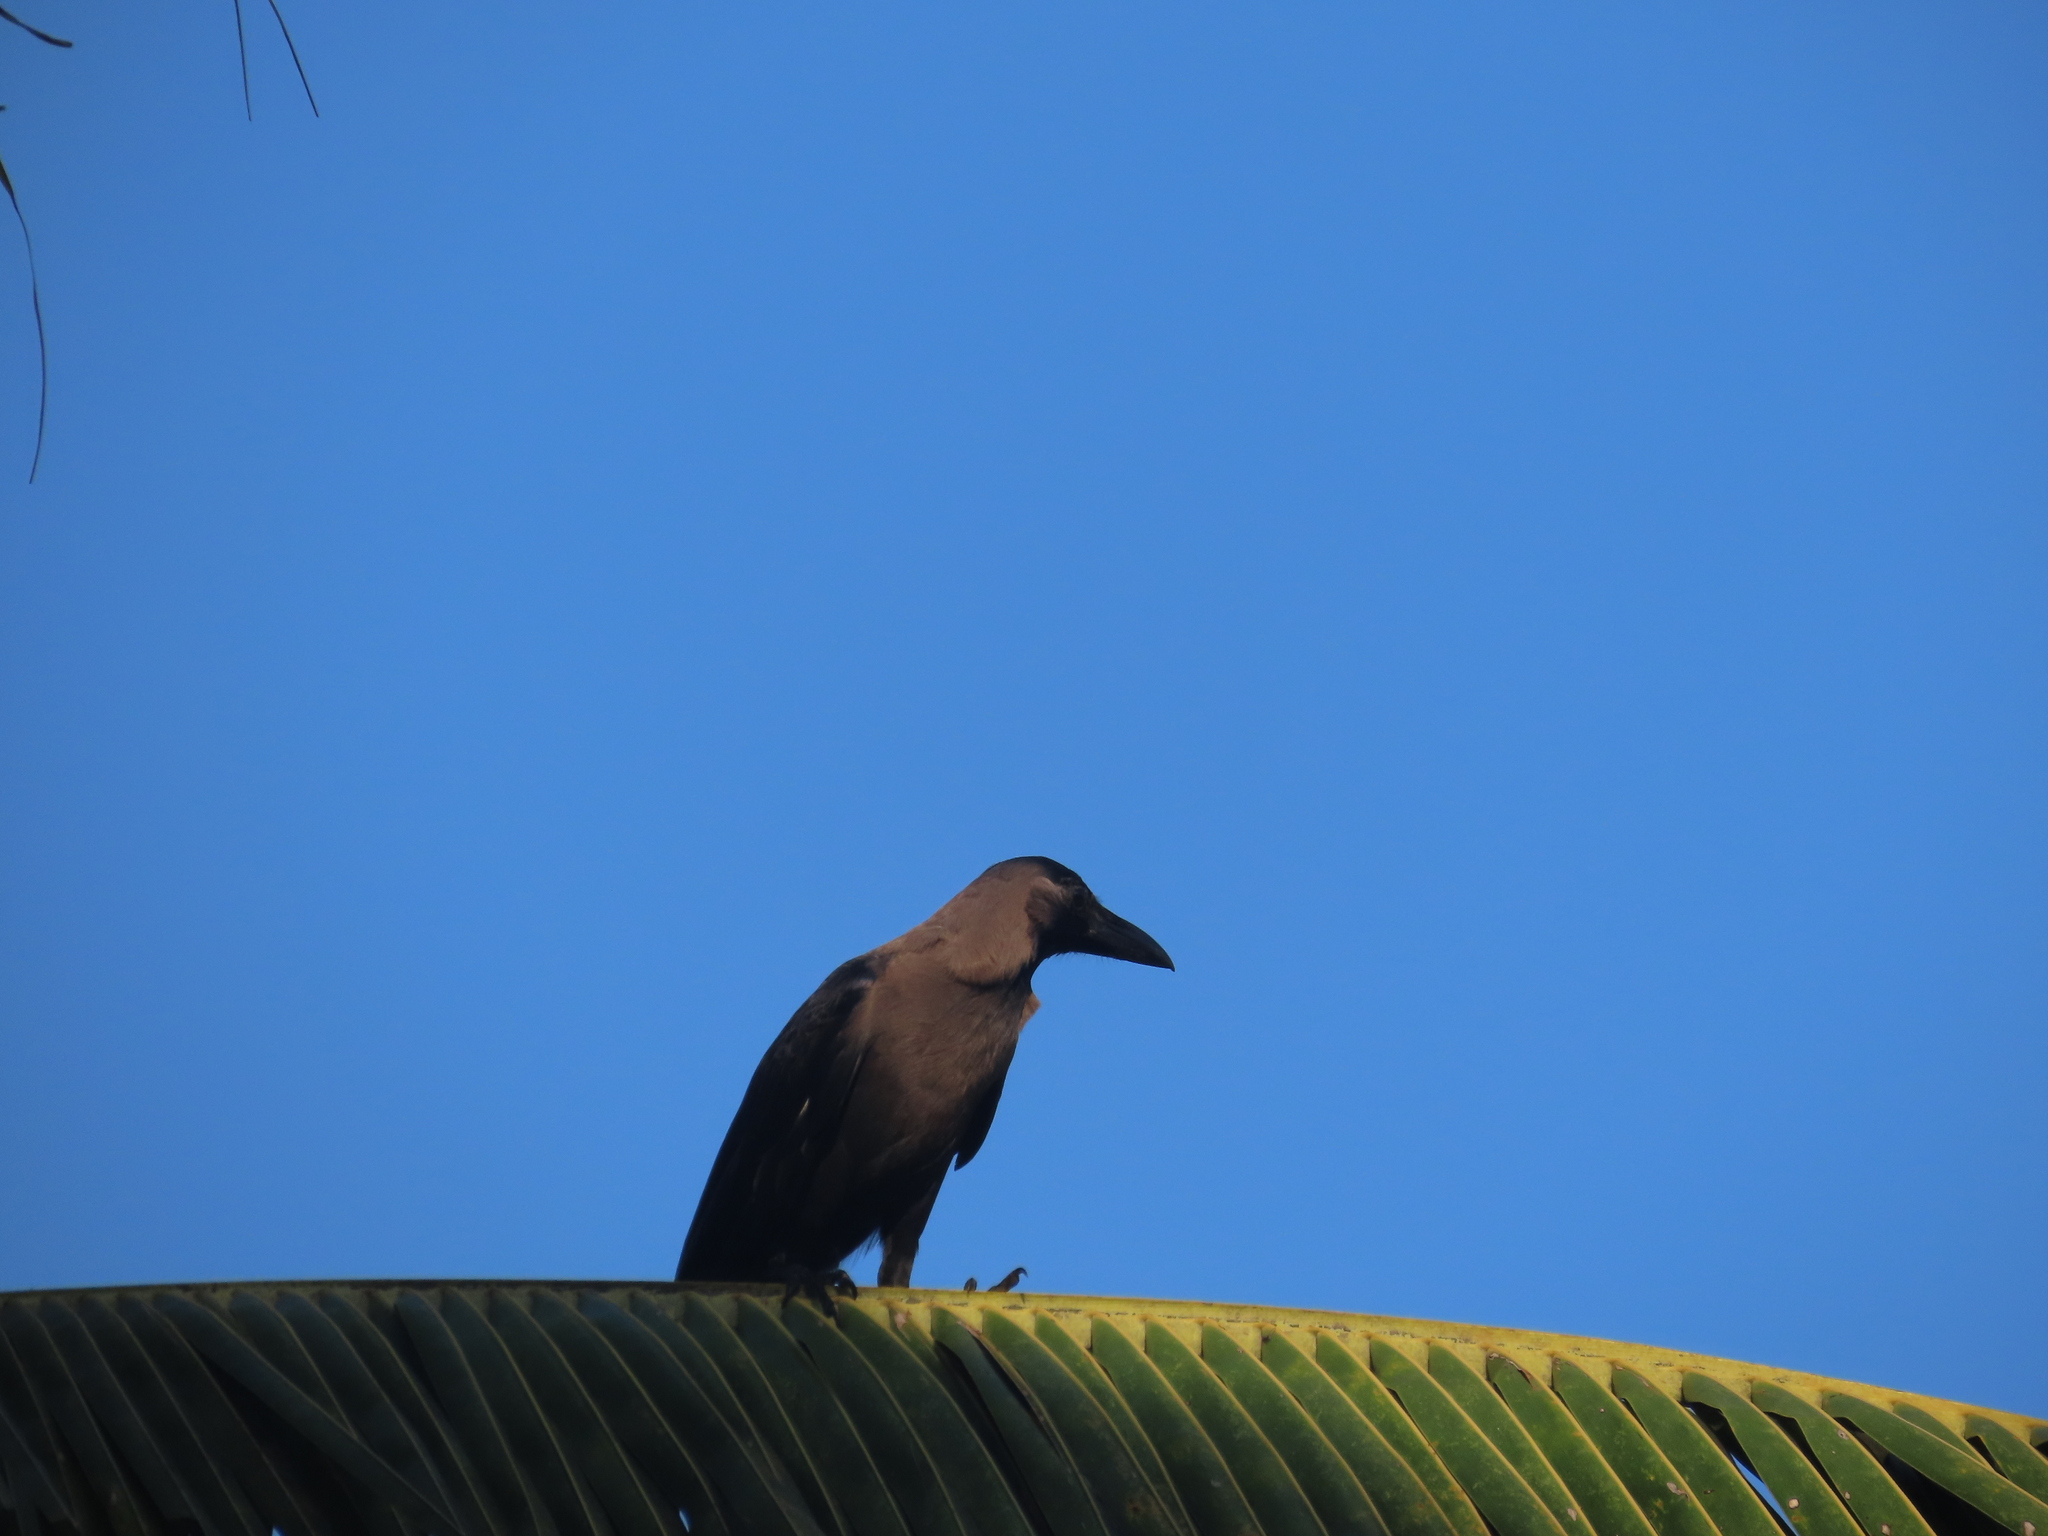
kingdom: Animalia
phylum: Chordata
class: Aves
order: Passeriformes
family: Corvidae
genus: Corvus
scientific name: Corvus splendens
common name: House crow
